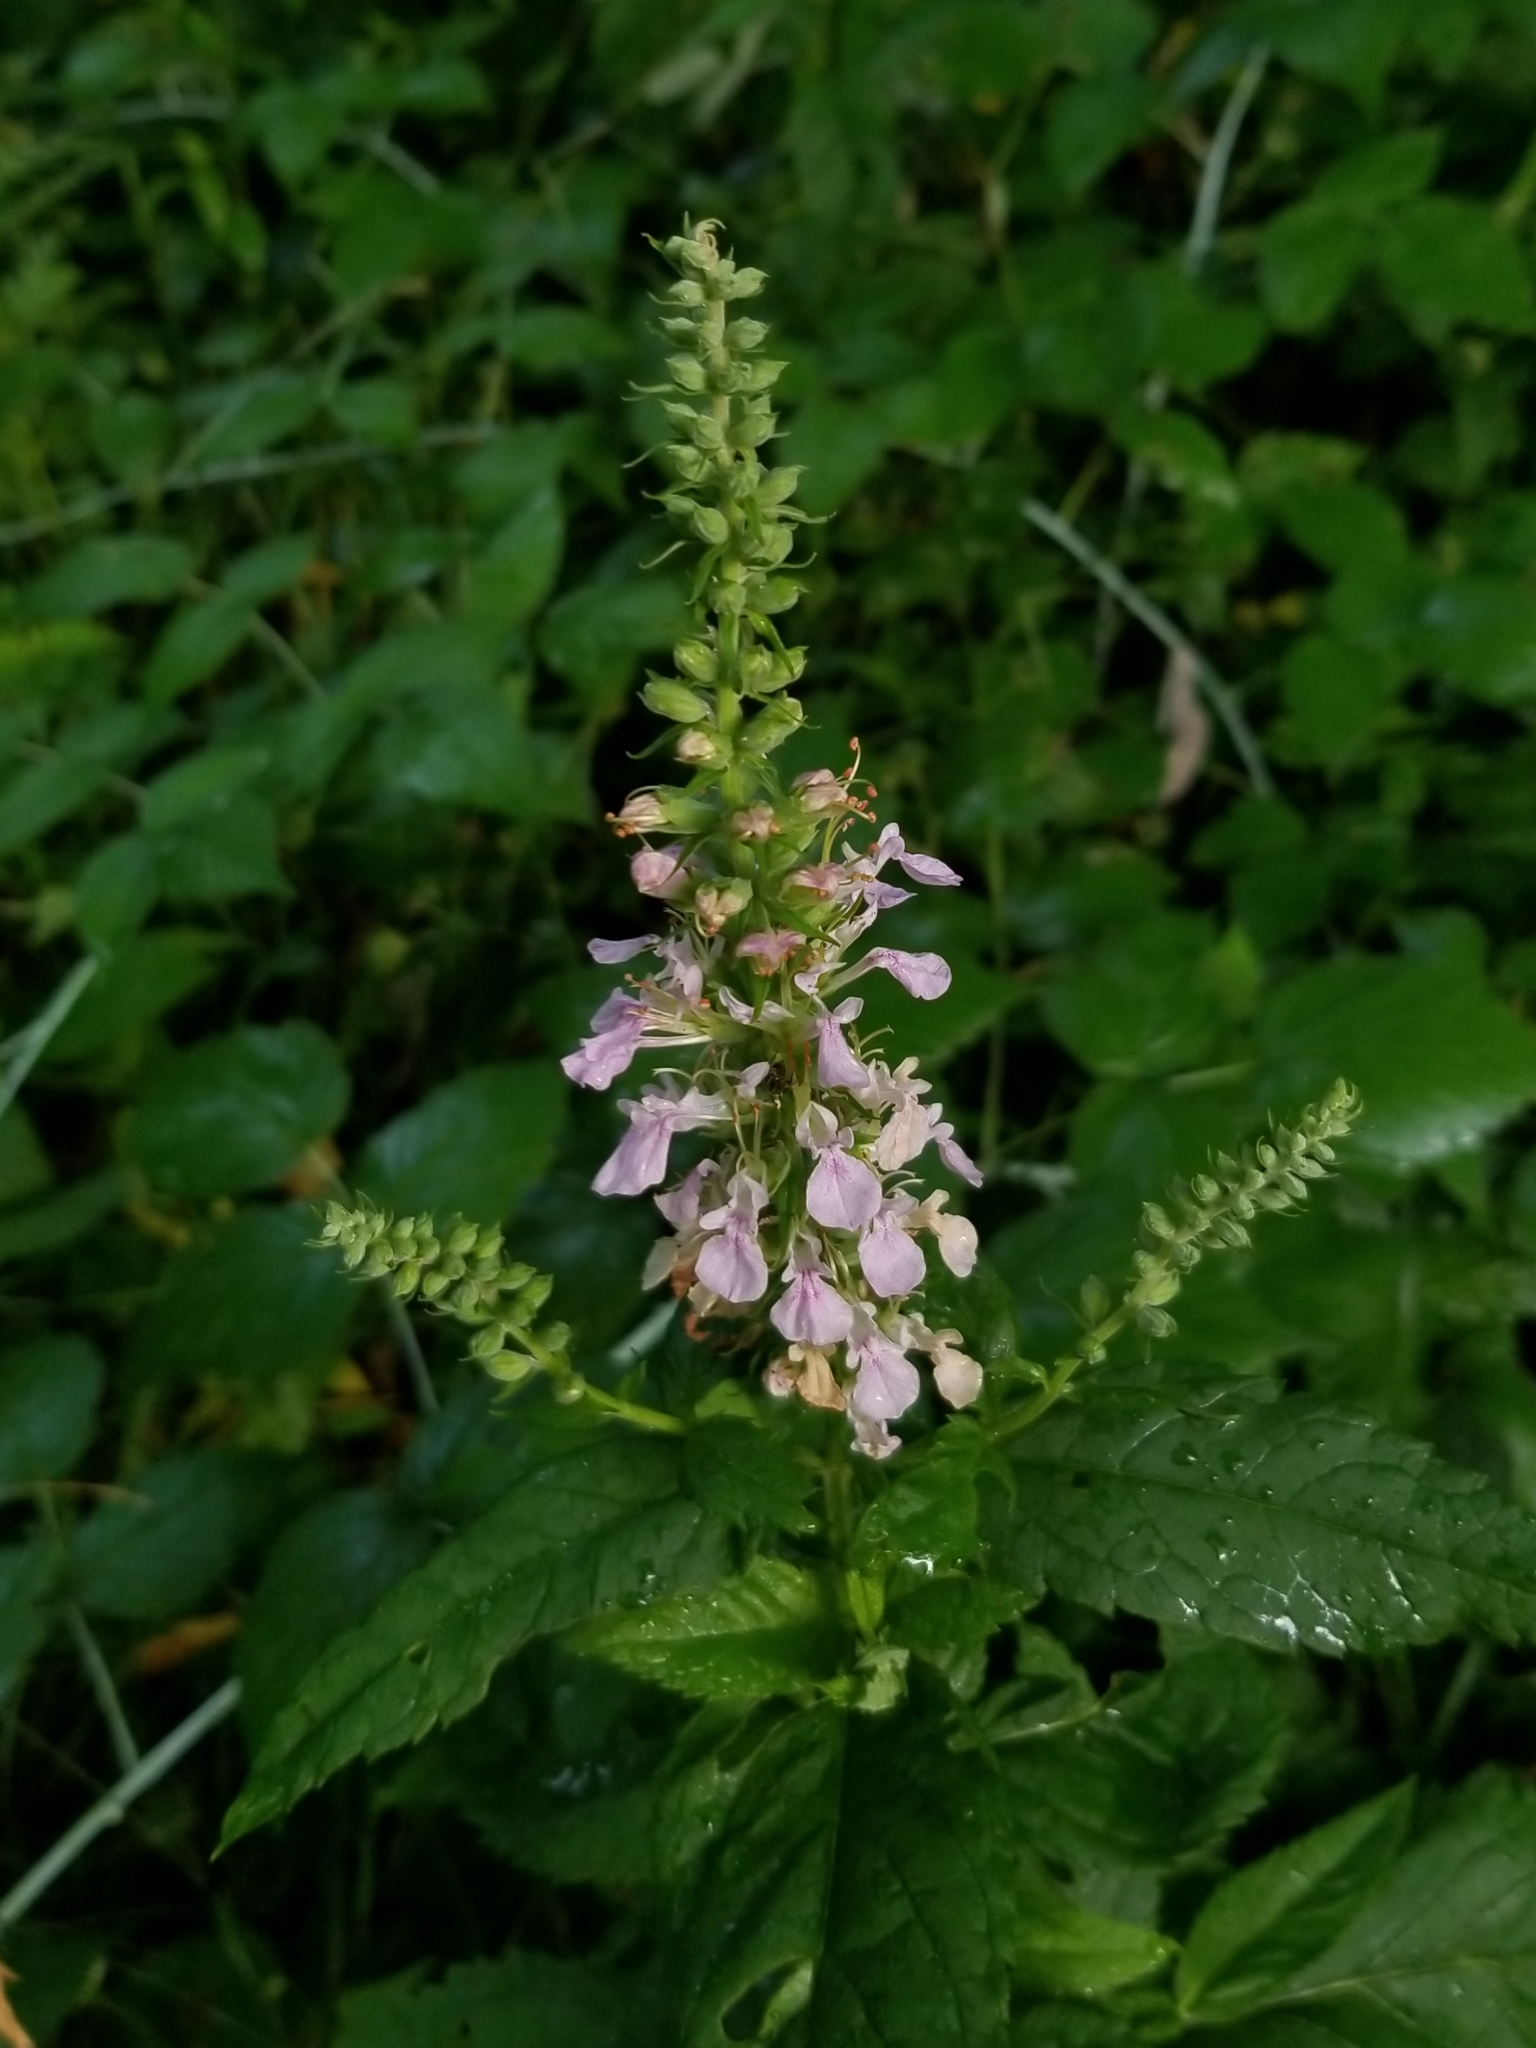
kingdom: Plantae
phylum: Tracheophyta
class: Magnoliopsida
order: Lamiales
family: Lamiaceae
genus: Teucrium
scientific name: Teucrium canadense
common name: American germander
